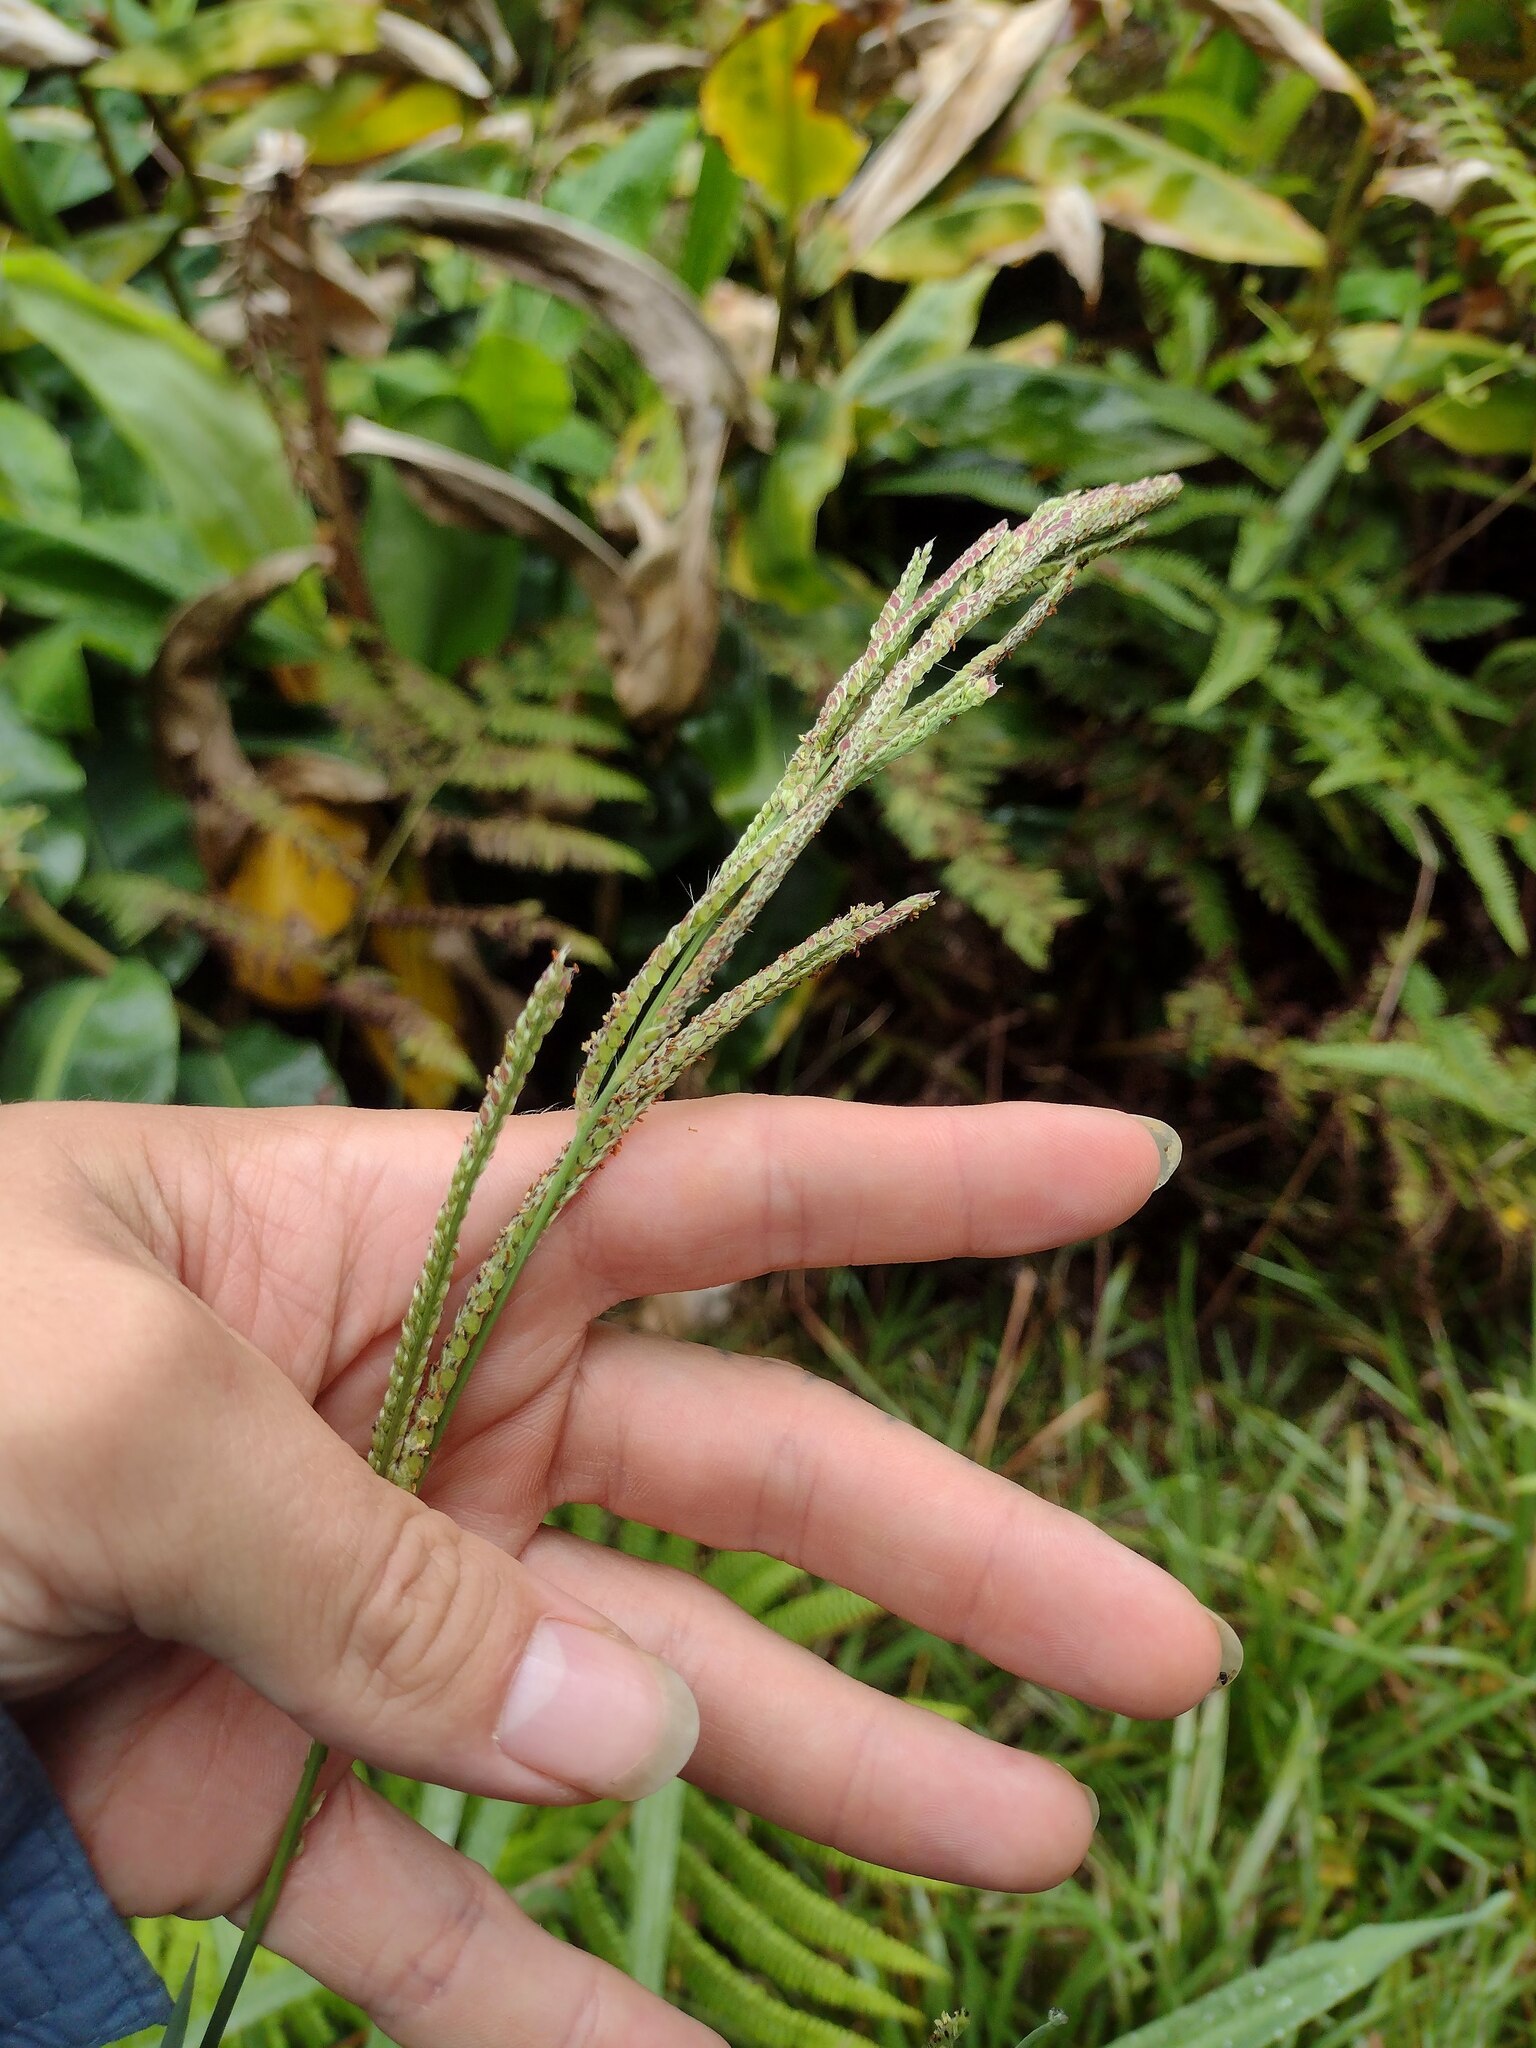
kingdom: Plantae
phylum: Tracheophyta
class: Liliopsida
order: Poales
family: Poaceae
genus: Paspalum
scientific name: Paspalum urvillei
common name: Vasey's grass
